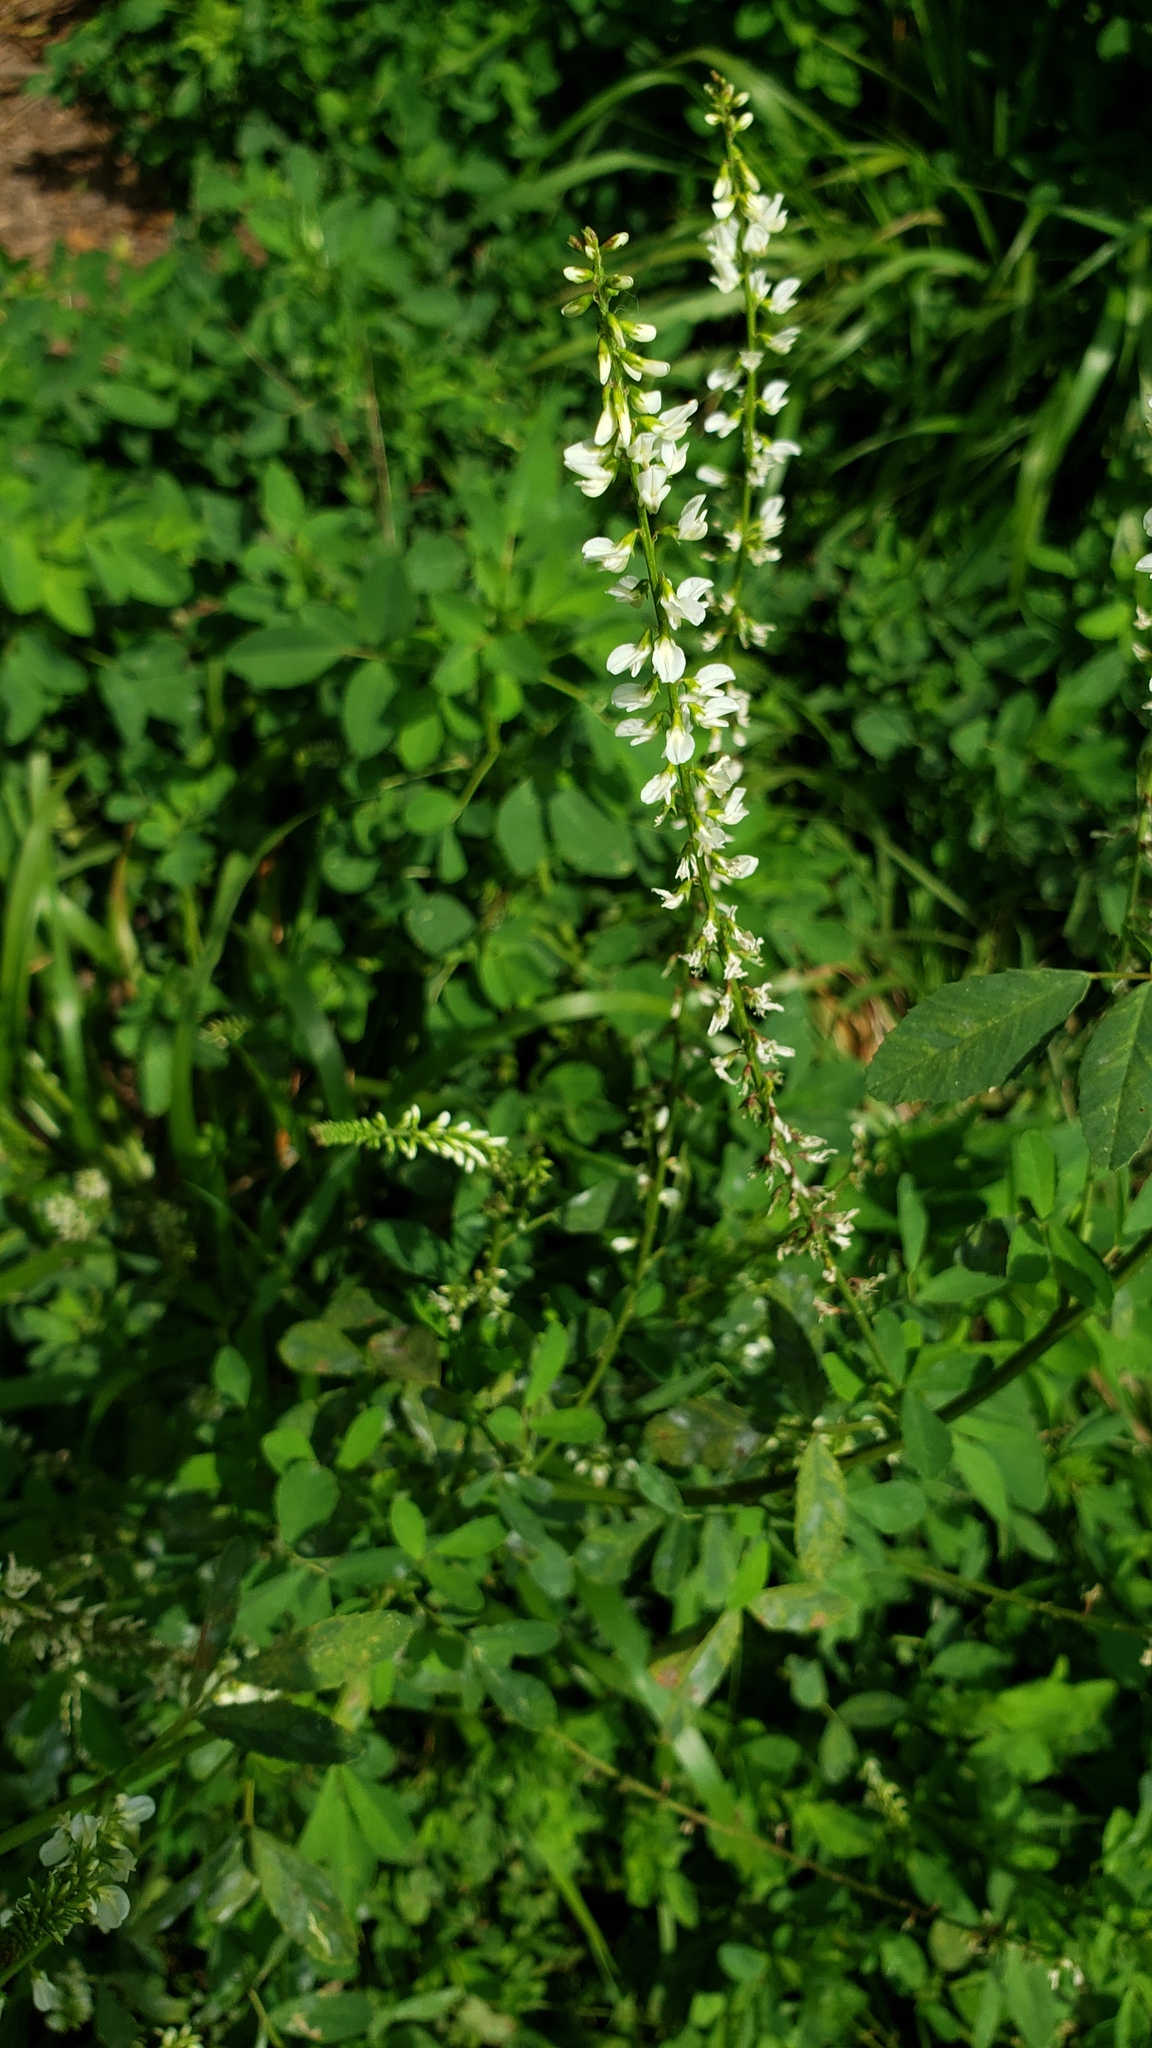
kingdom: Plantae
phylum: Tracheophyta
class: Magnoliopsida
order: Fabales
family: Fabaceae
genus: Melilotus
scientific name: Melilotus albus
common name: White melilot
